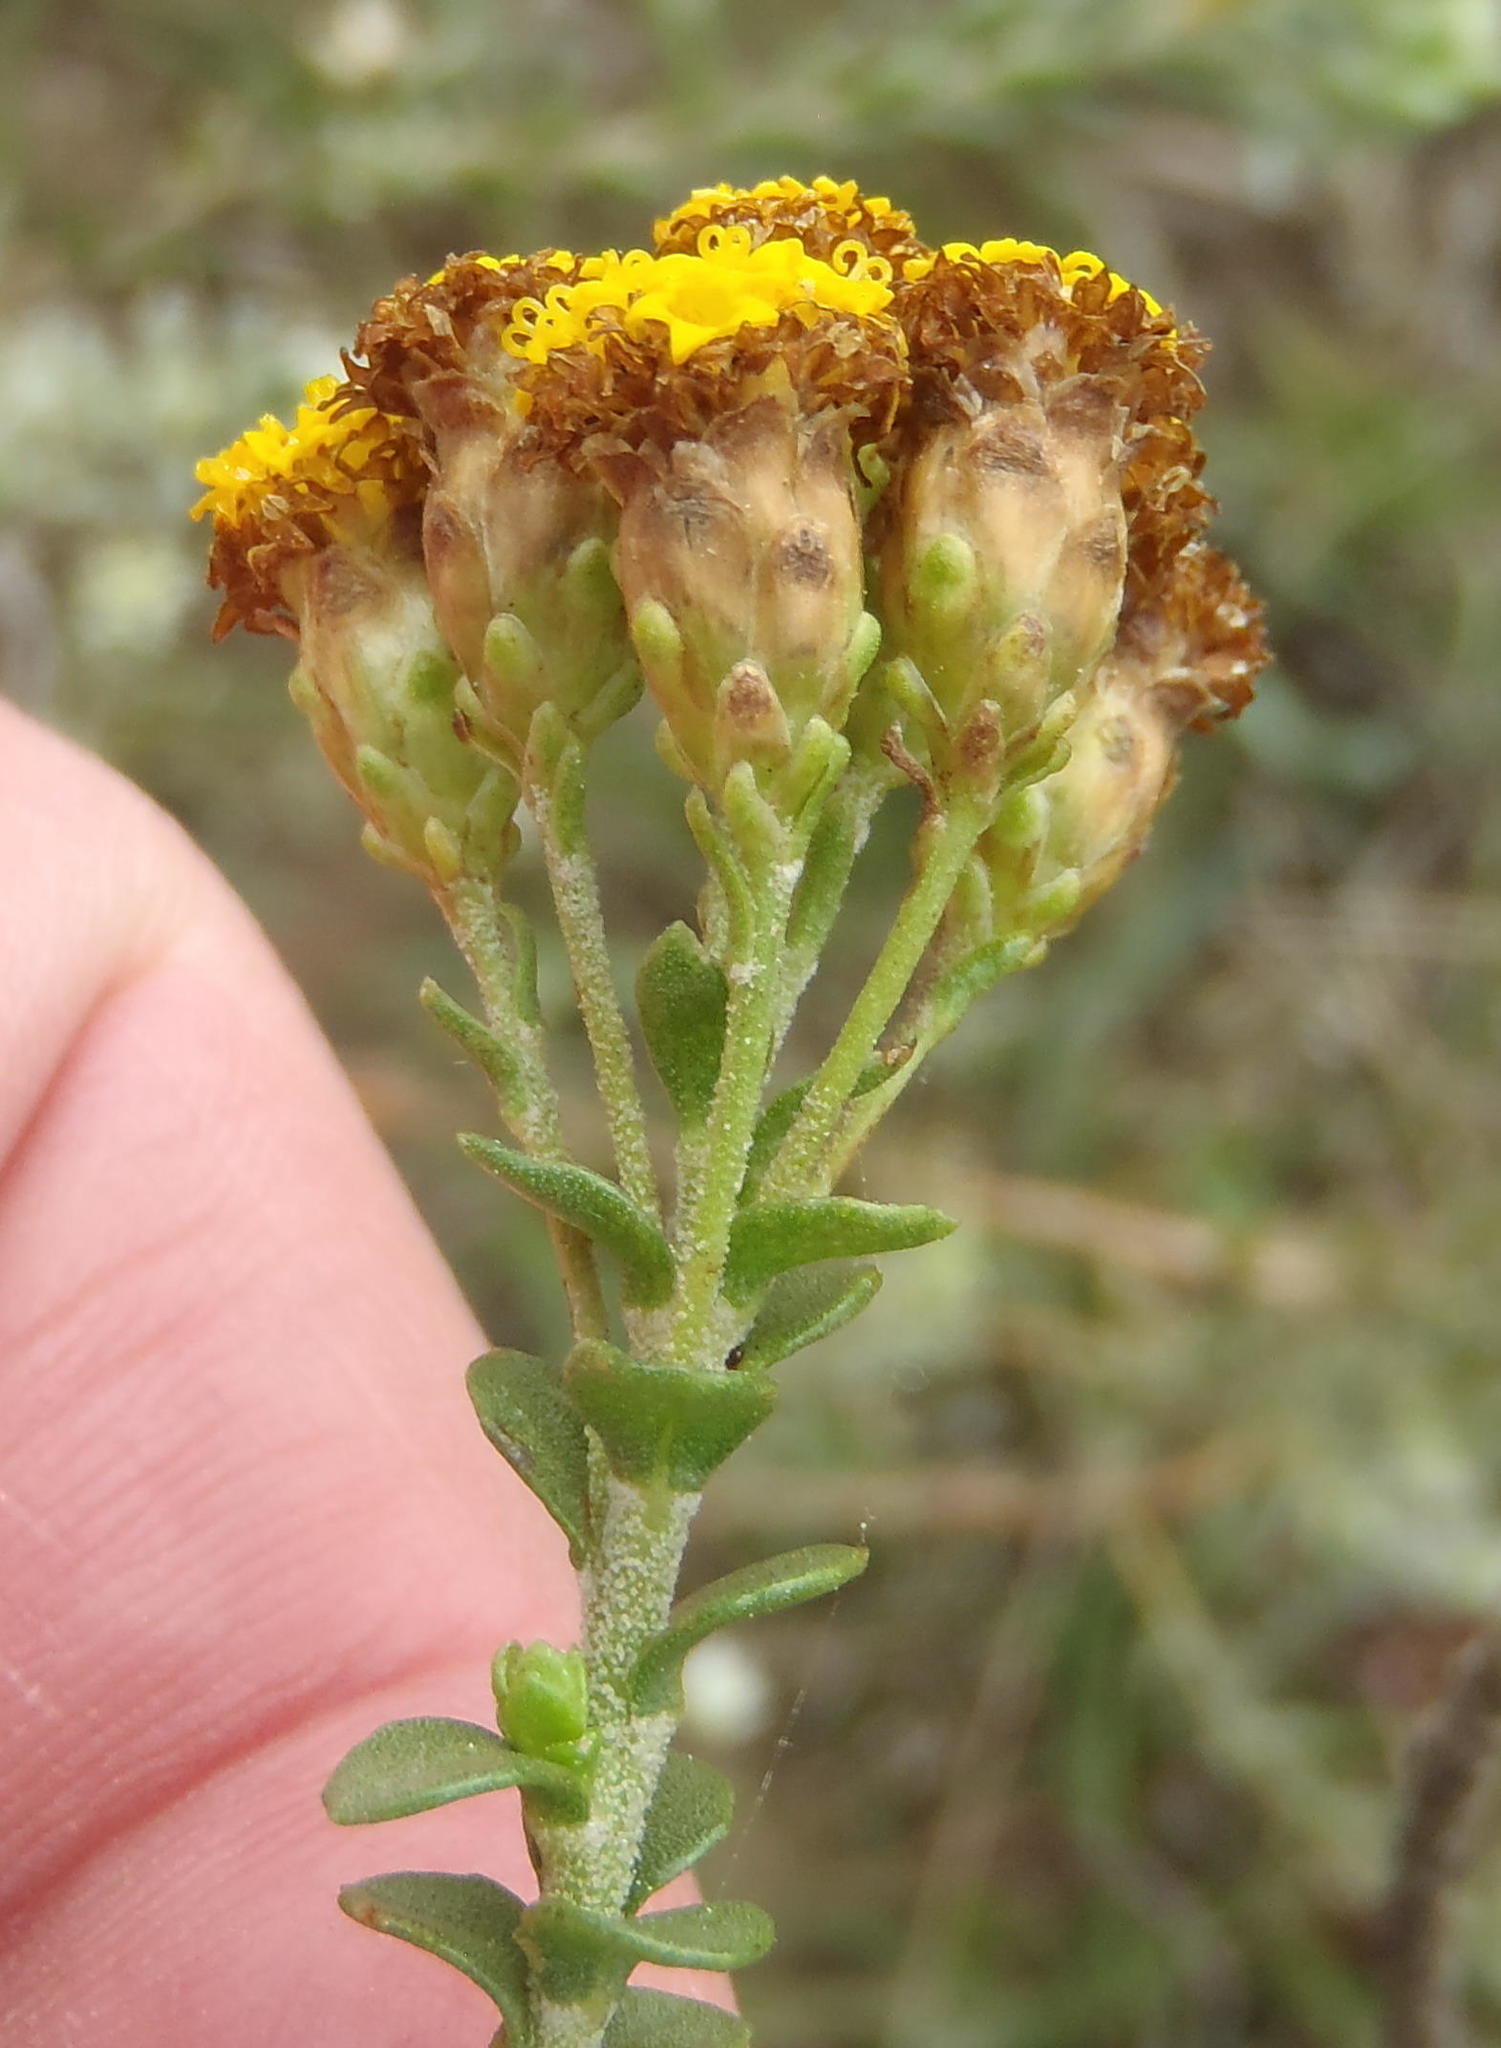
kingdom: Plantae
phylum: Tracheophyta
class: Magnoliopsida
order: Asterales
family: Asteraceae
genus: Athanasia
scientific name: Athanasia quinquedentata
